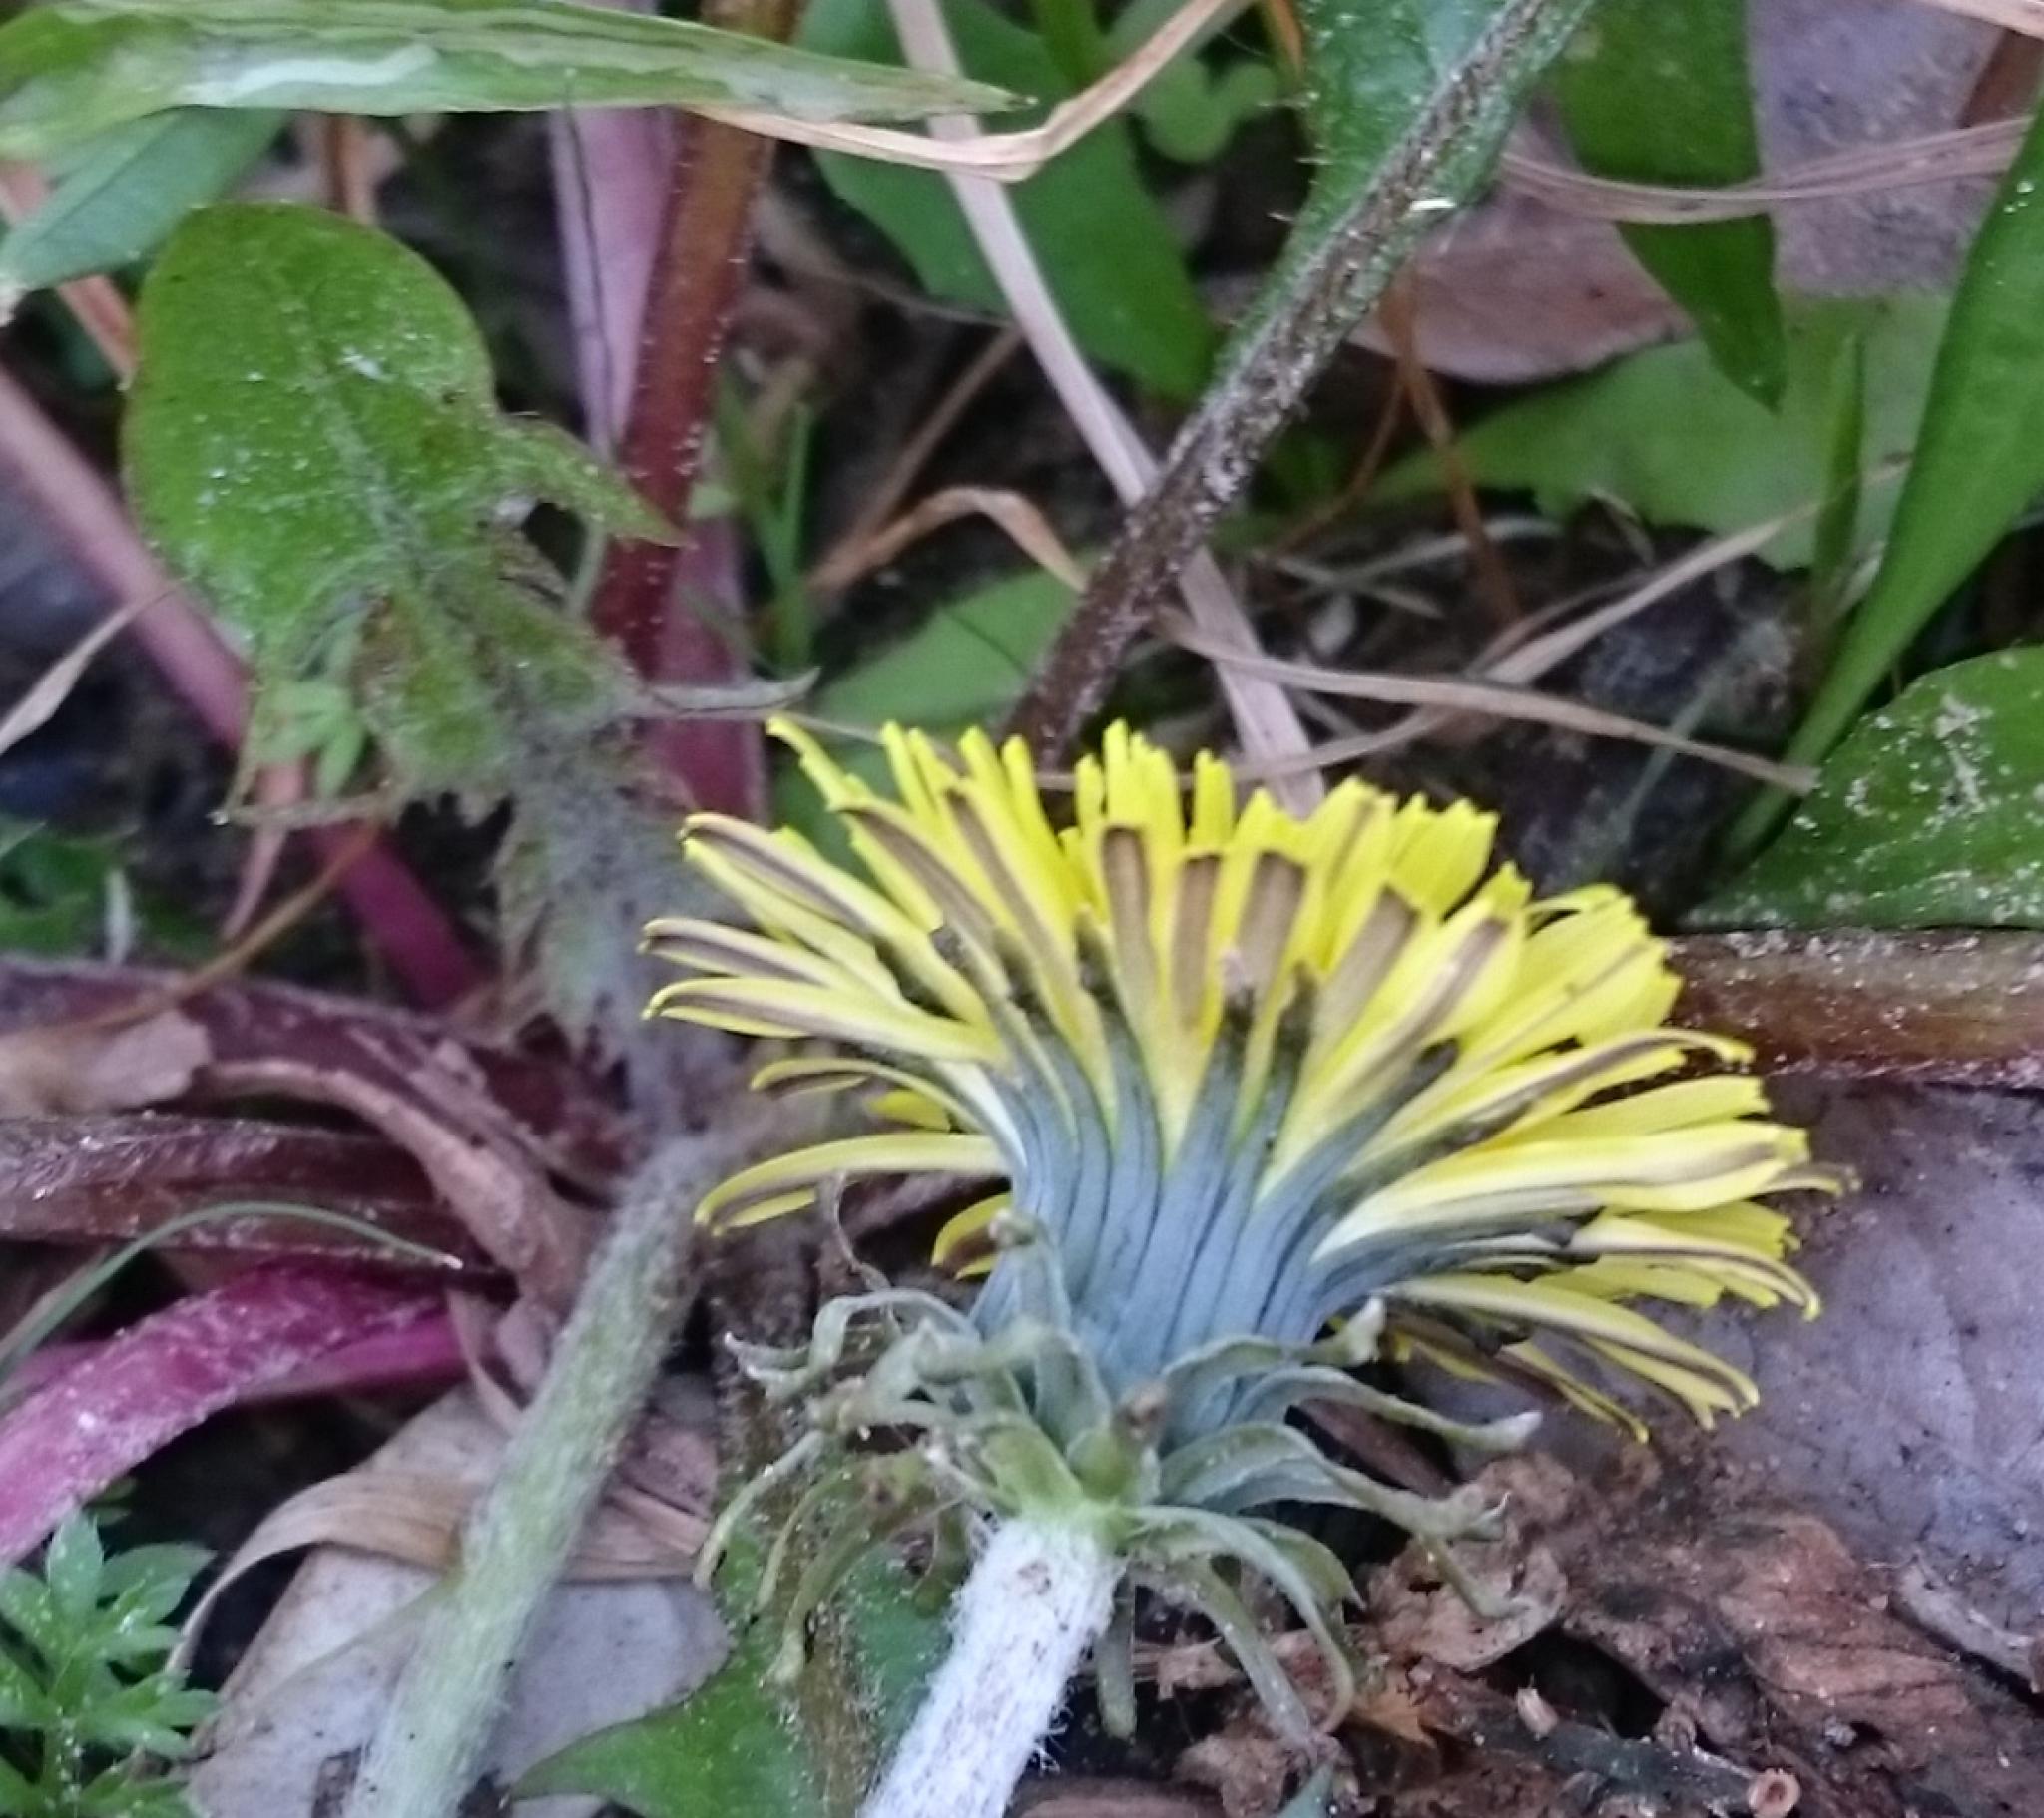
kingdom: Plantae
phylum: Tracheophyta
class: Magnoliopsida
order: Asterales
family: Asteraceae
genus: Taraxacum
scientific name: Taraxacum officinale
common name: Common dandelion
